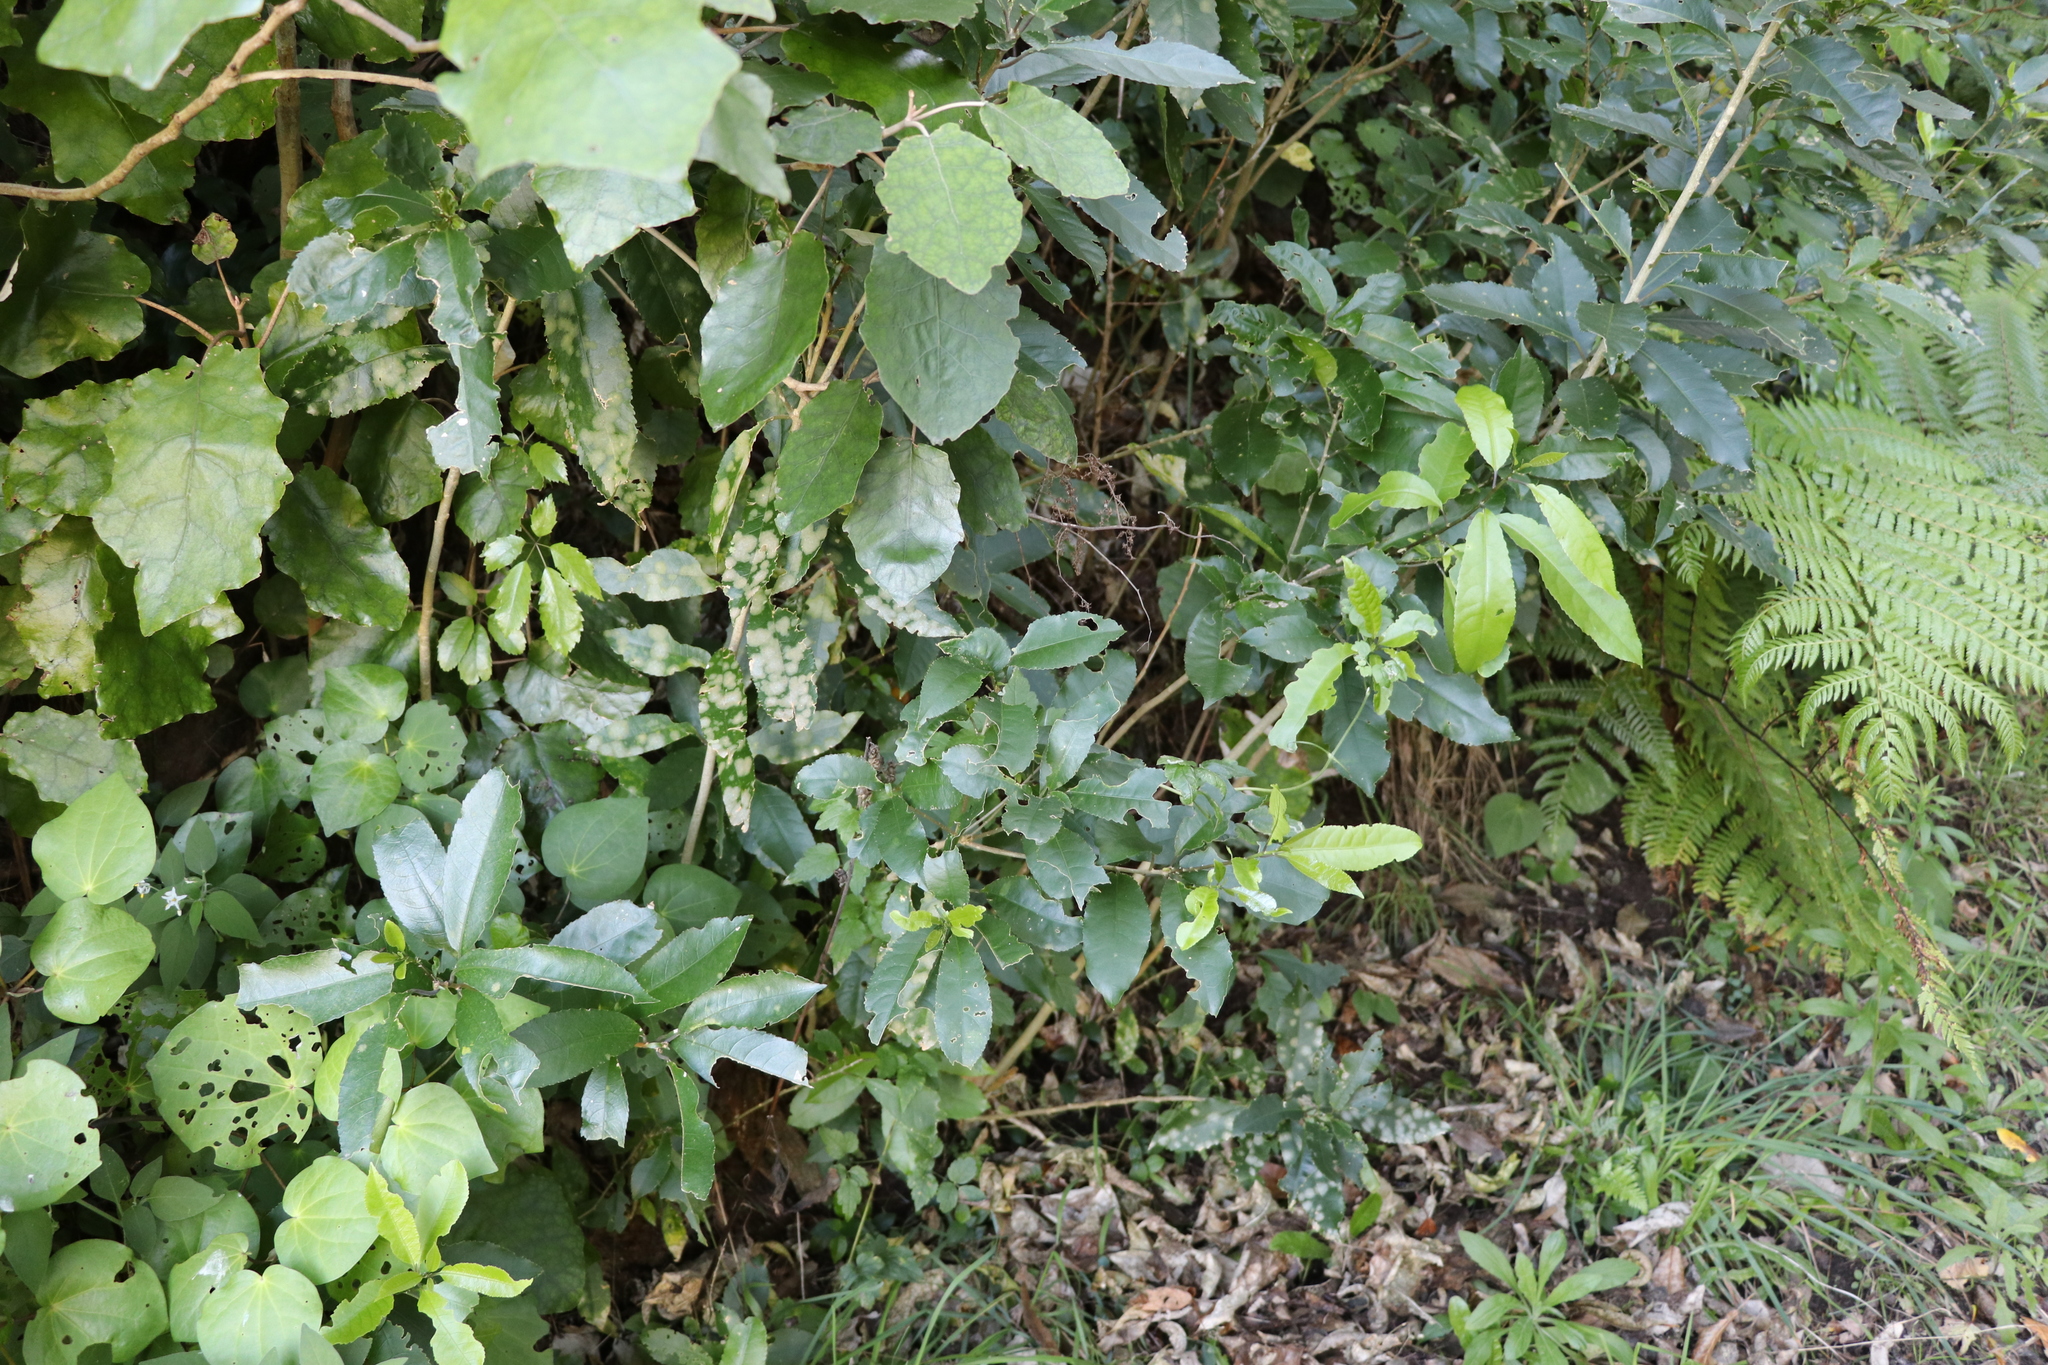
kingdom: Plantae
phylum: Tracheophyta
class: Magnoliopsida
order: Malpighiales
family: Violaceae
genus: Melicytus
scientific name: Melicytus ramiflorus
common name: Mahoe
